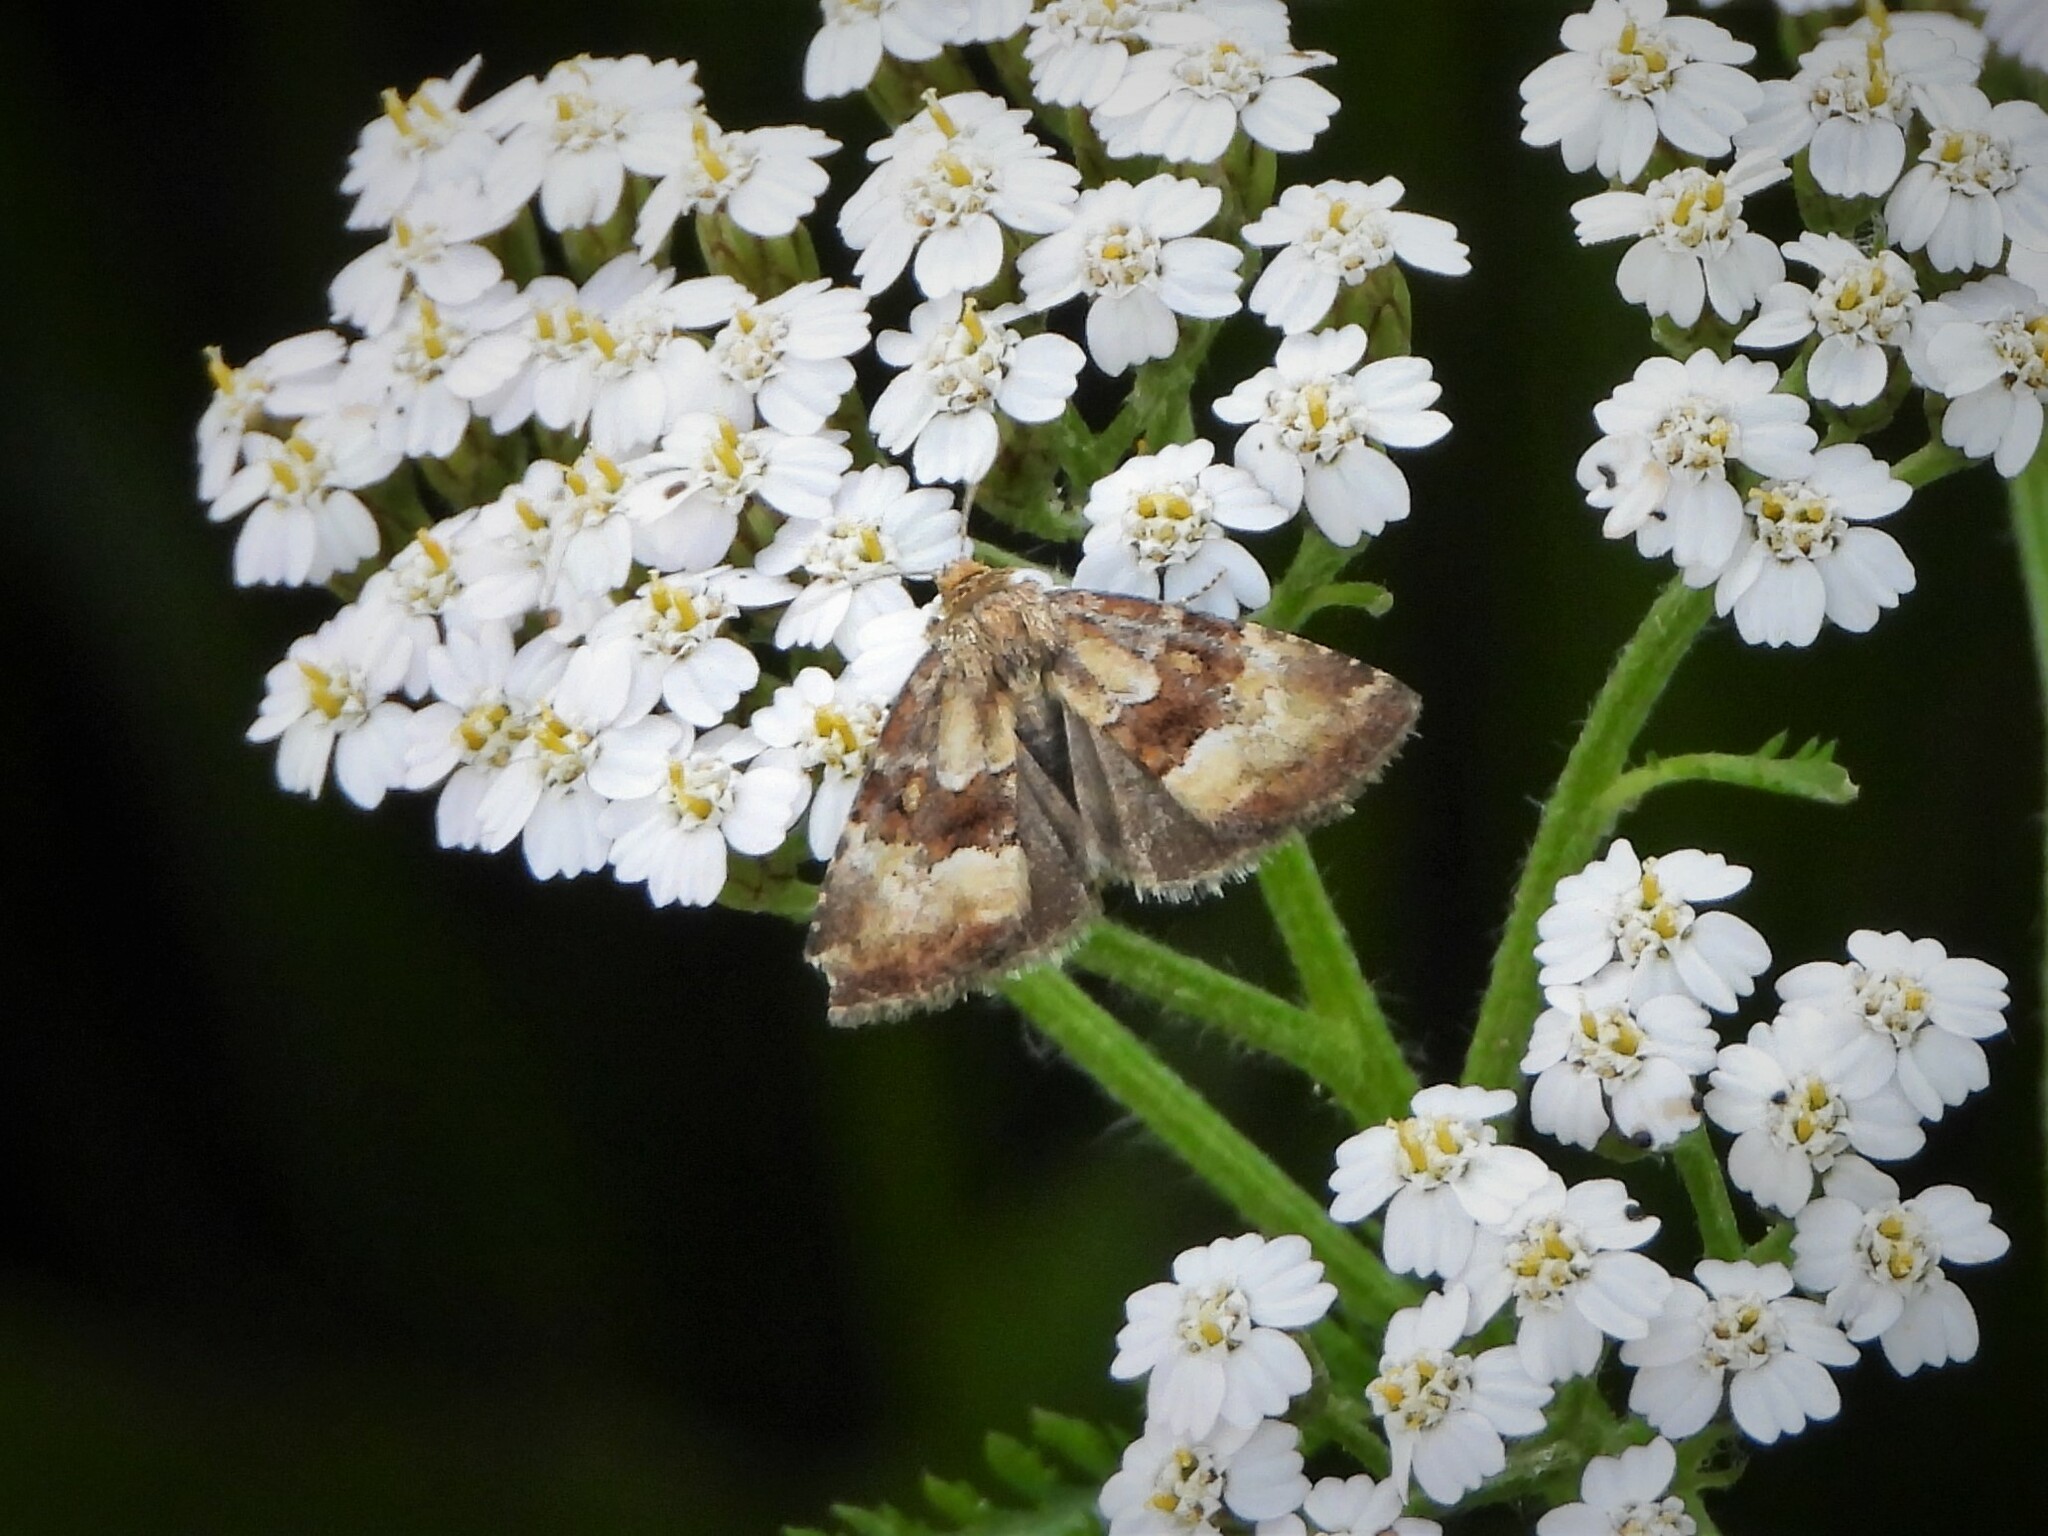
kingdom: Animalia
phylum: Arthropoda
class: Insecta
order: Lepidoptera
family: Noctuidae
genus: Photedes
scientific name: Photedes captiuncula
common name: Least minor
